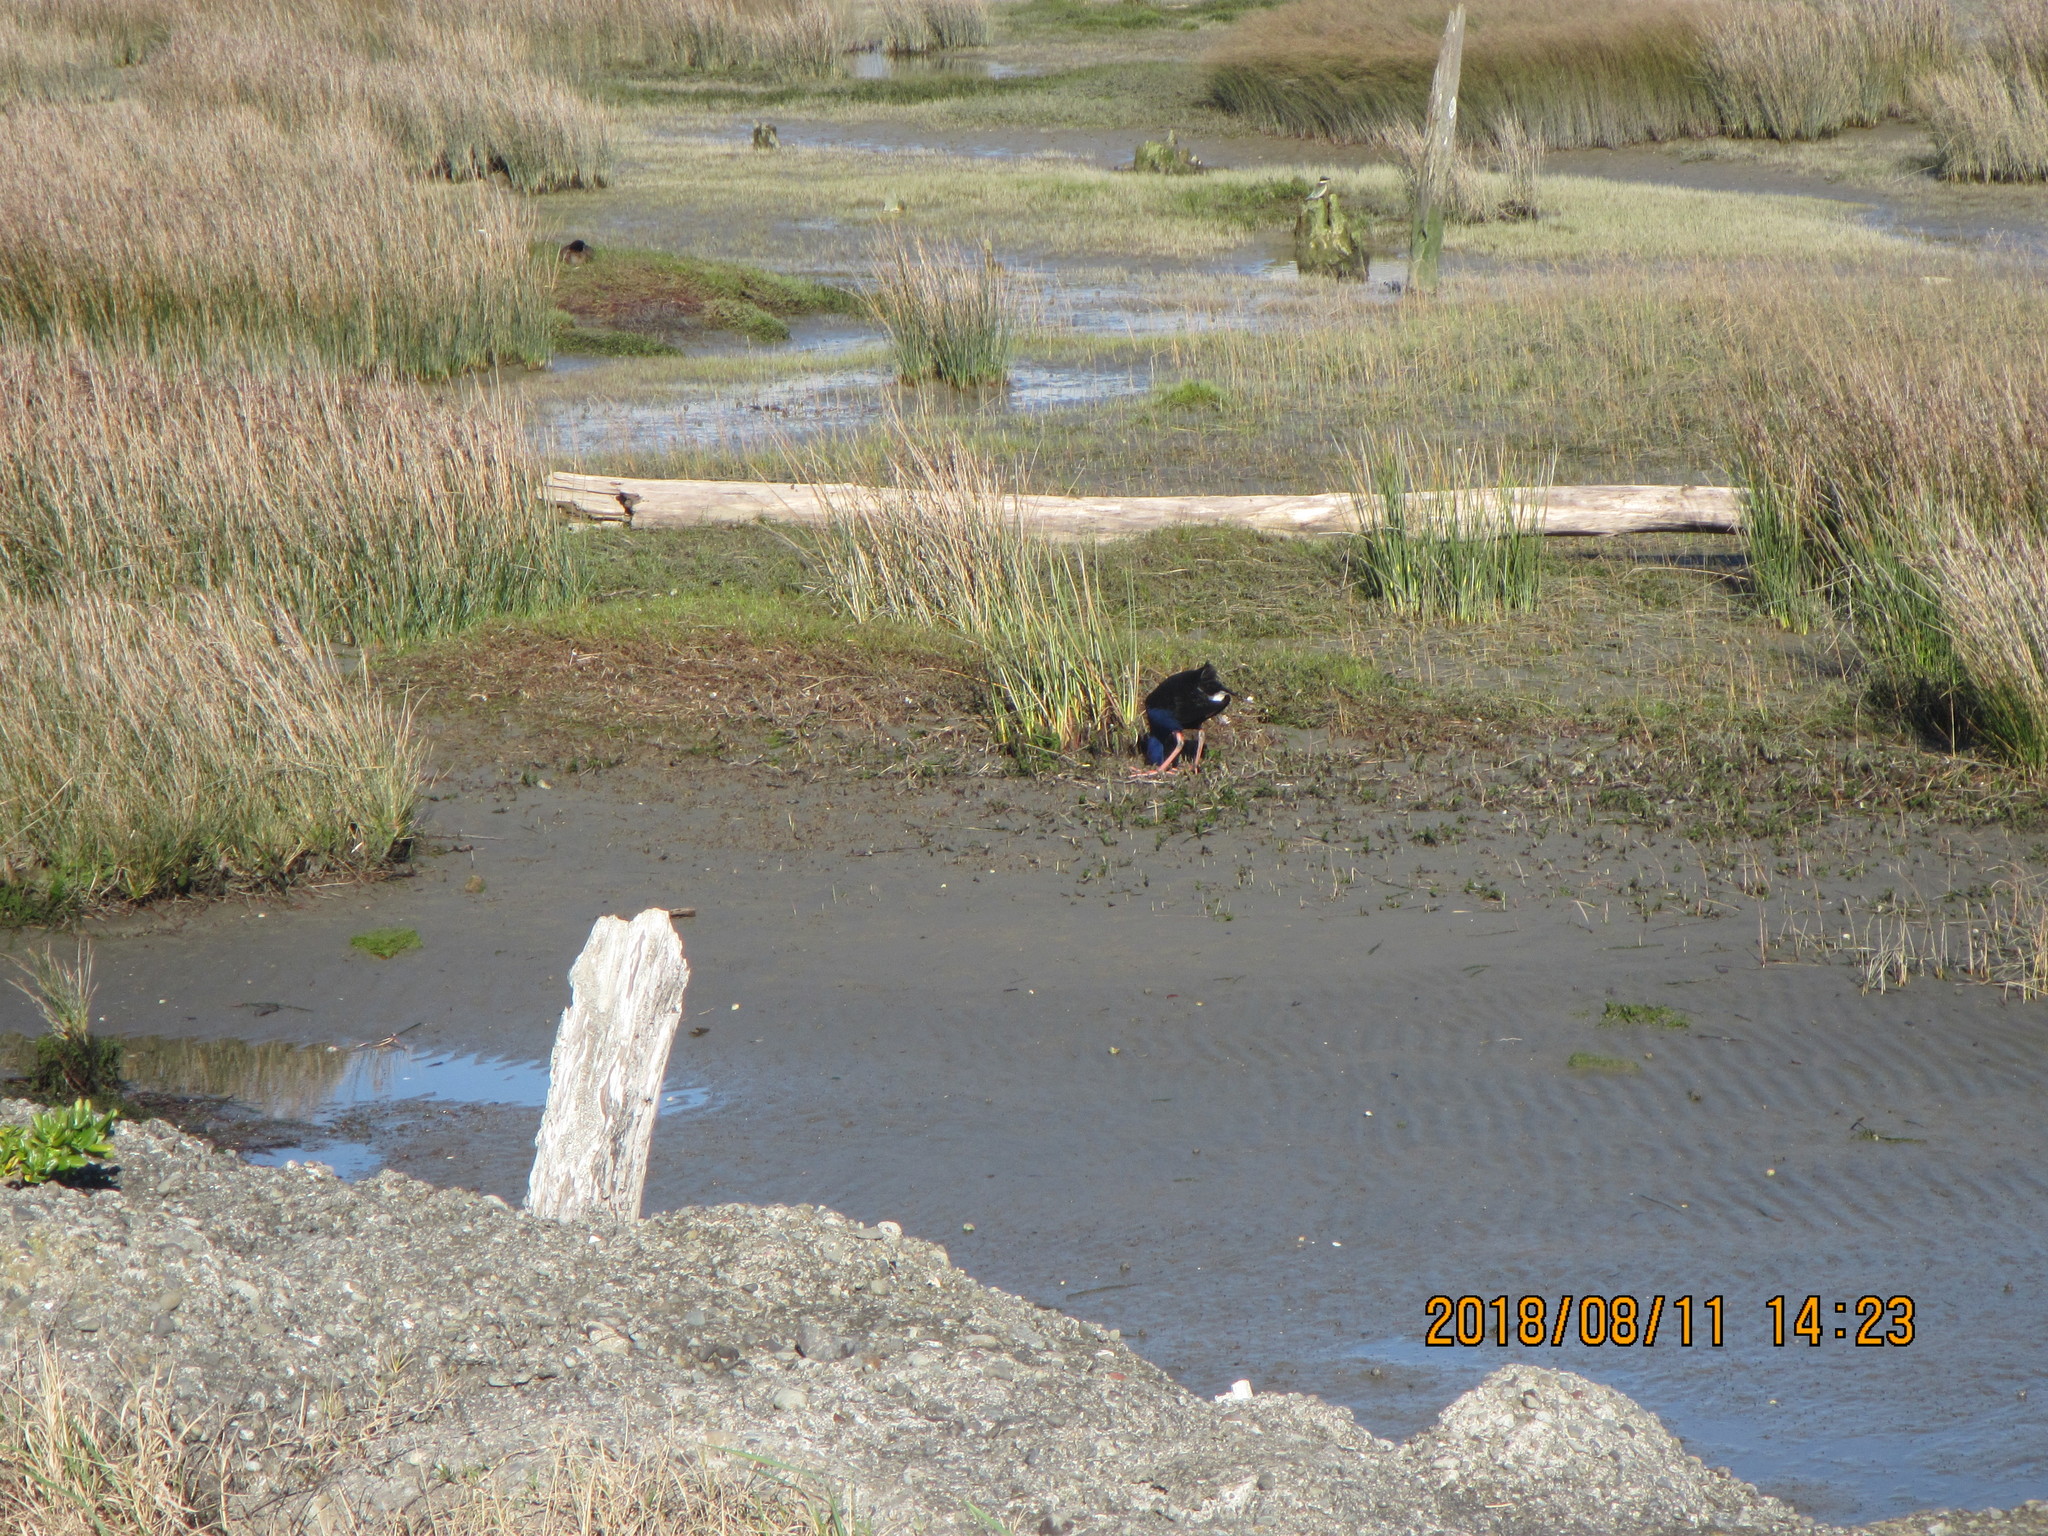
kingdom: Animalia
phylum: Chordata
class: Aves
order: Gruiformes
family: Rallidae
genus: Porphyrio
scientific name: Porphyrio melanotus
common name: Australasian swamphen
